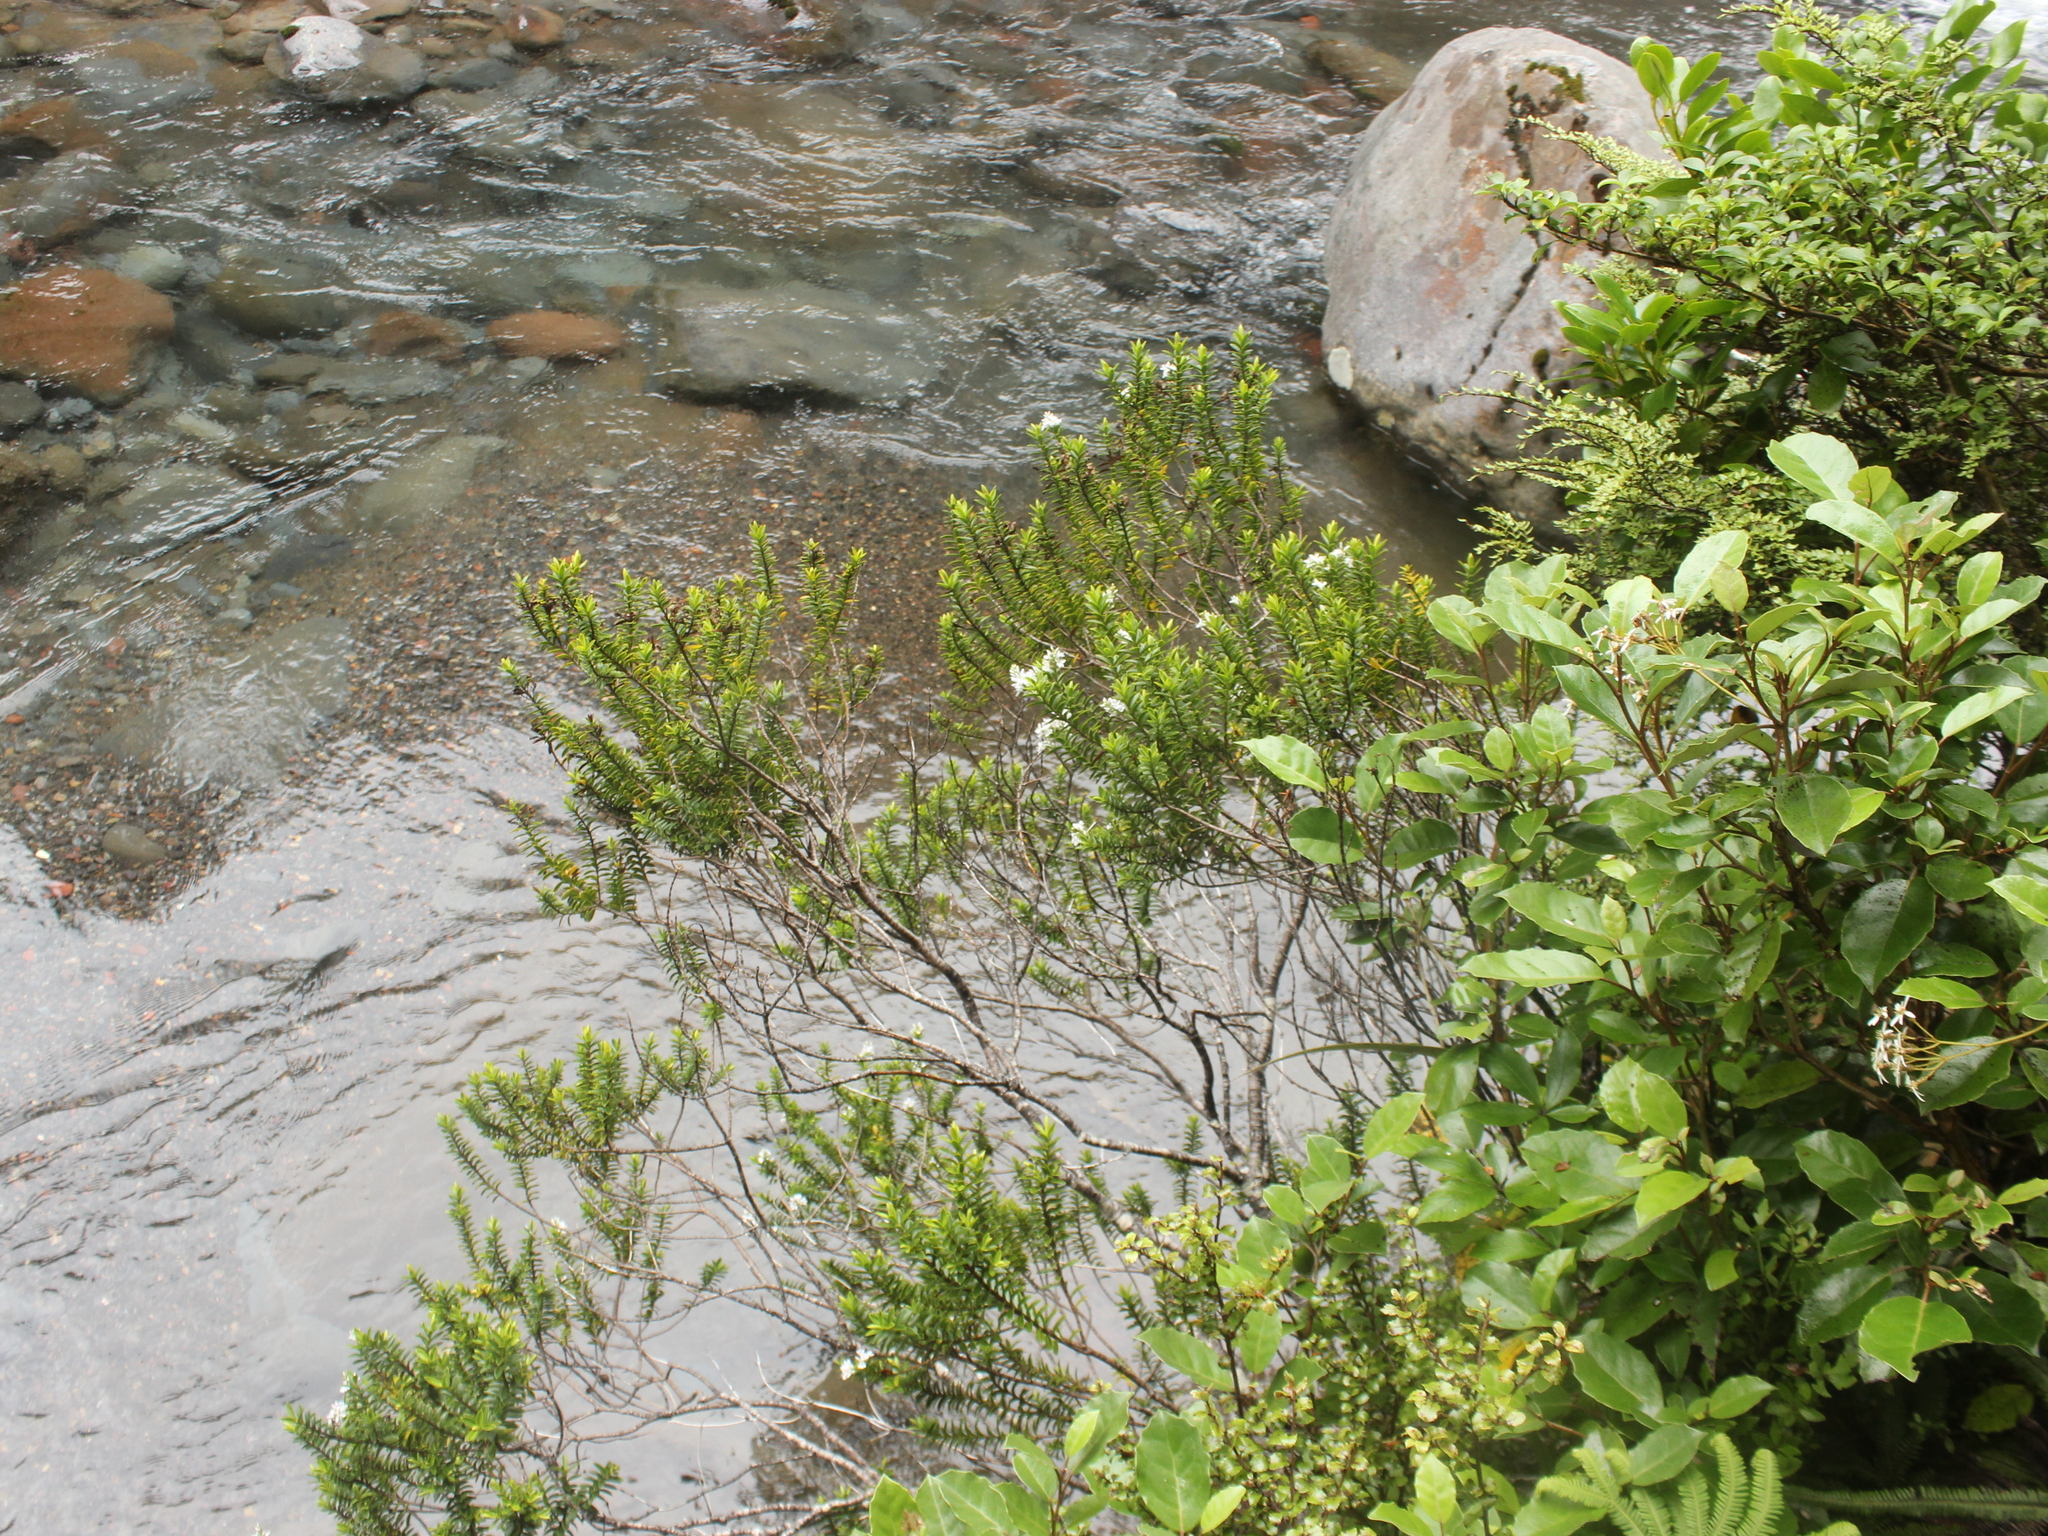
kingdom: Plantae
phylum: Tracheophyta
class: Magnoliopsida
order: Lamiales
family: Plantaginaceae
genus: Veronica
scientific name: Veronica venustula
